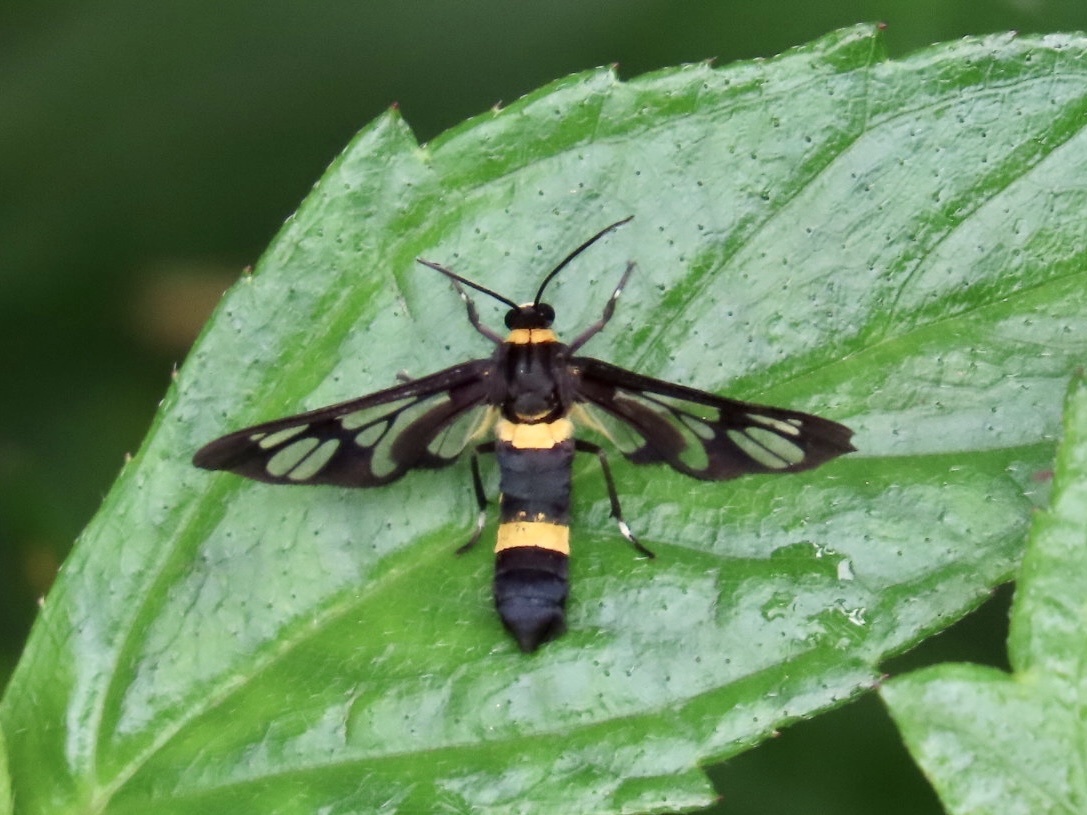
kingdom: Animalia
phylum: Arthropoda
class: Insecta
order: Lepidoptera
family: Erebidae
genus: Syntomoides
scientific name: Syntomoides imaon
